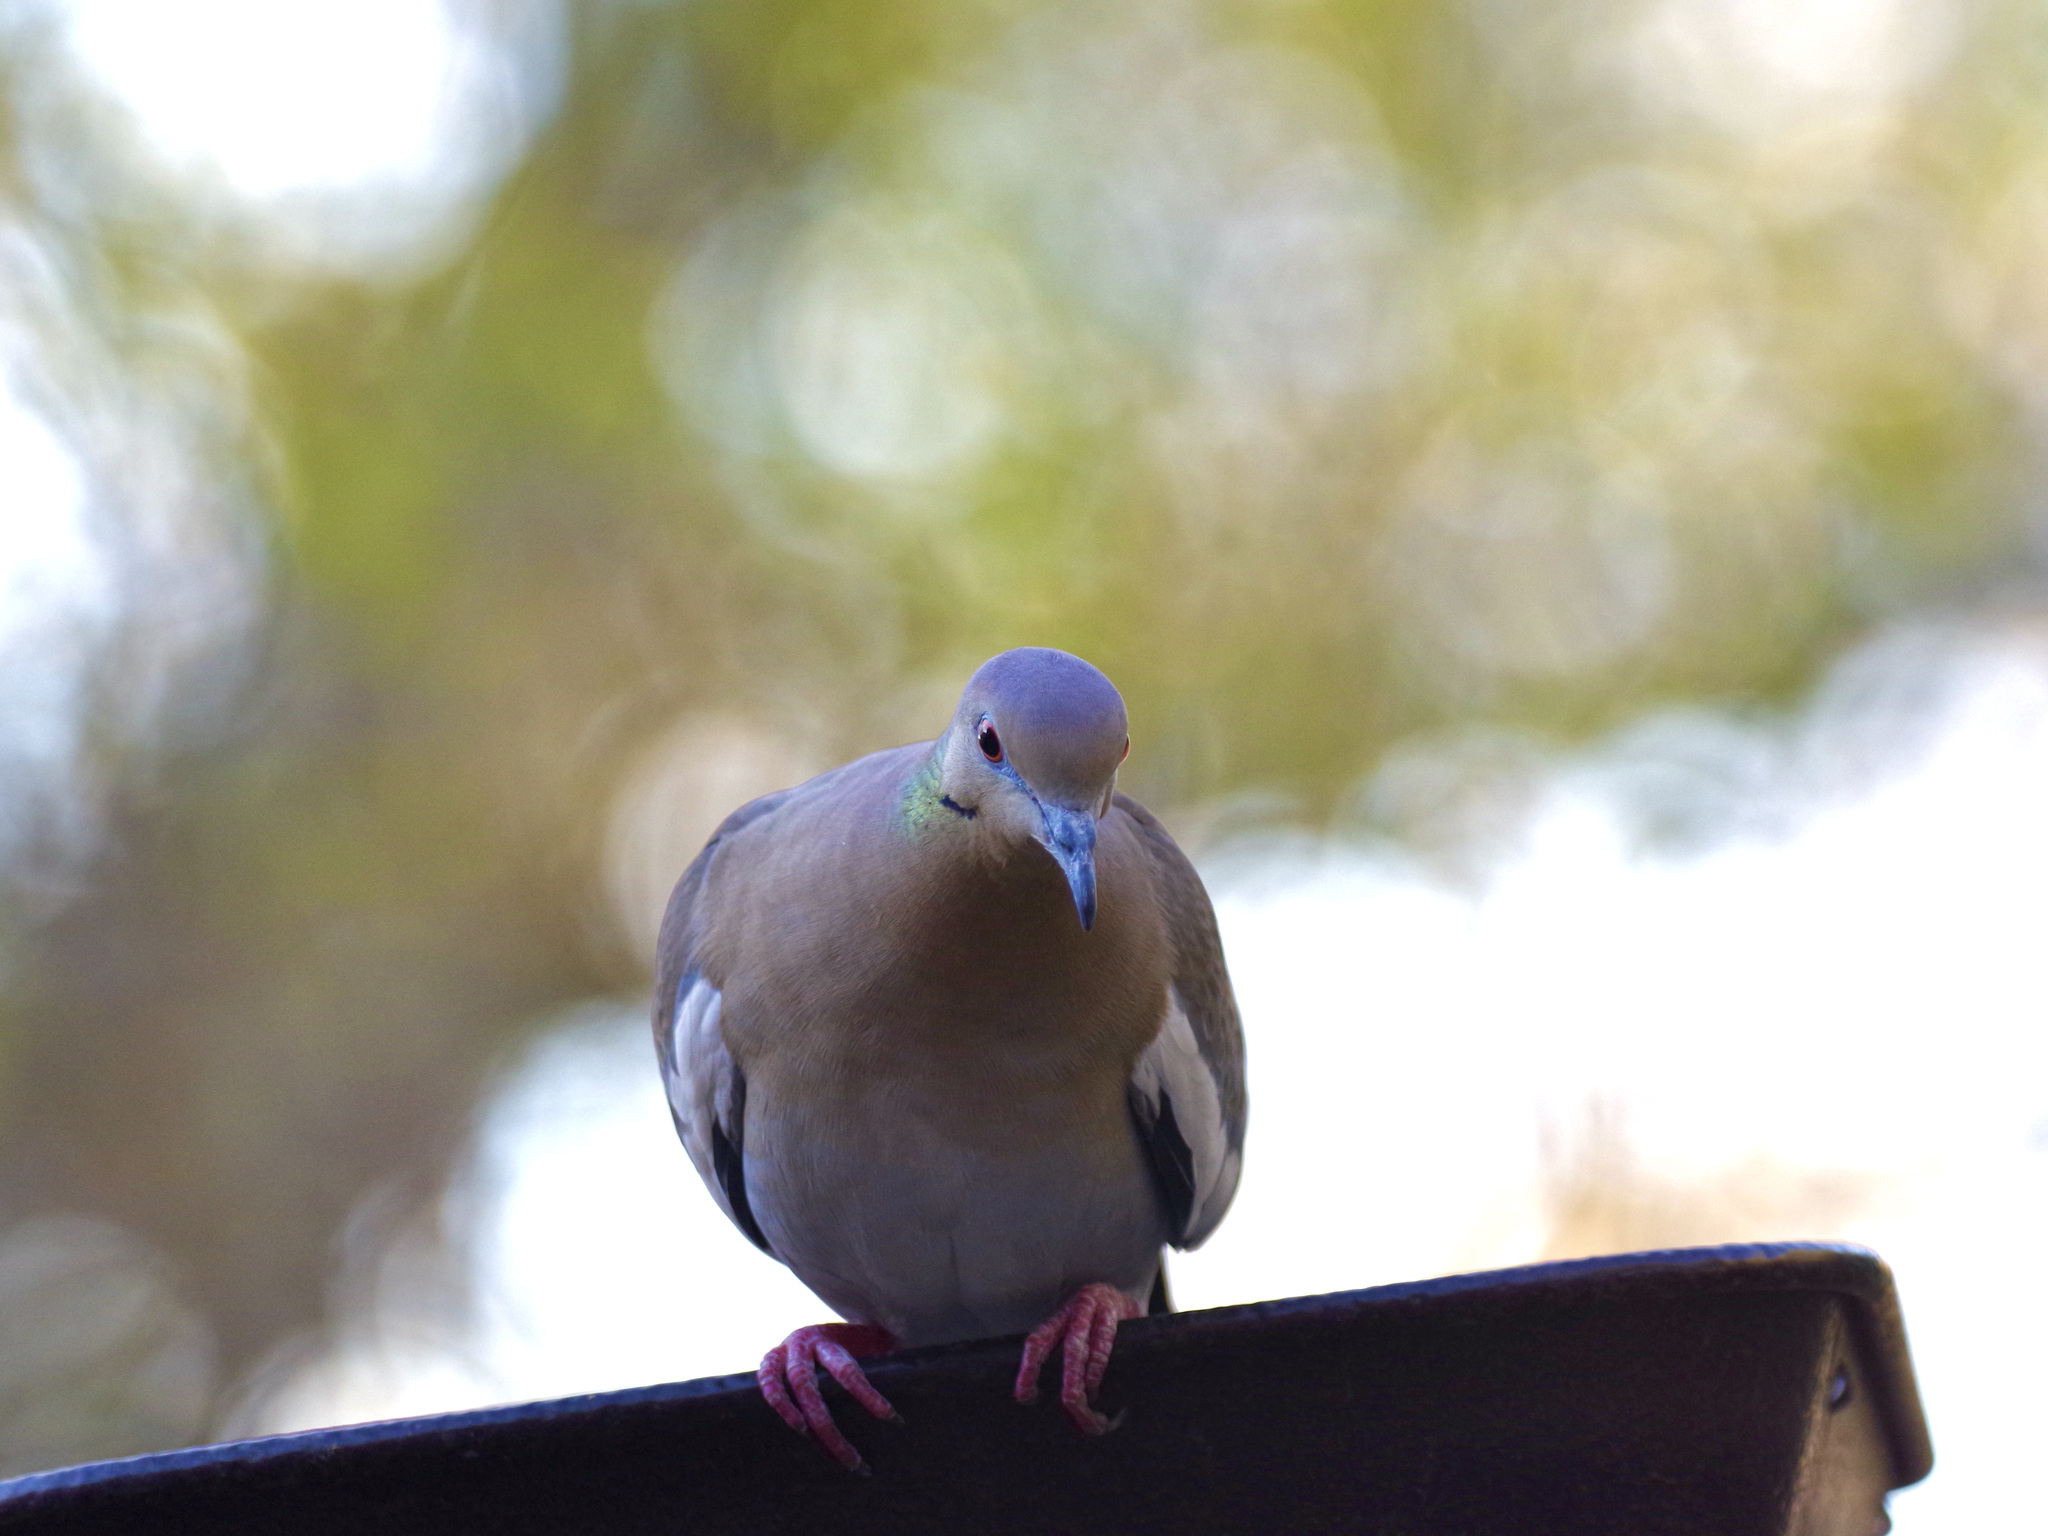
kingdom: Animalia
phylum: Chordata
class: Aves
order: Columbiformes
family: Columbidae
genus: Zenaida
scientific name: Zenaida asiatica
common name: White-winged dove
